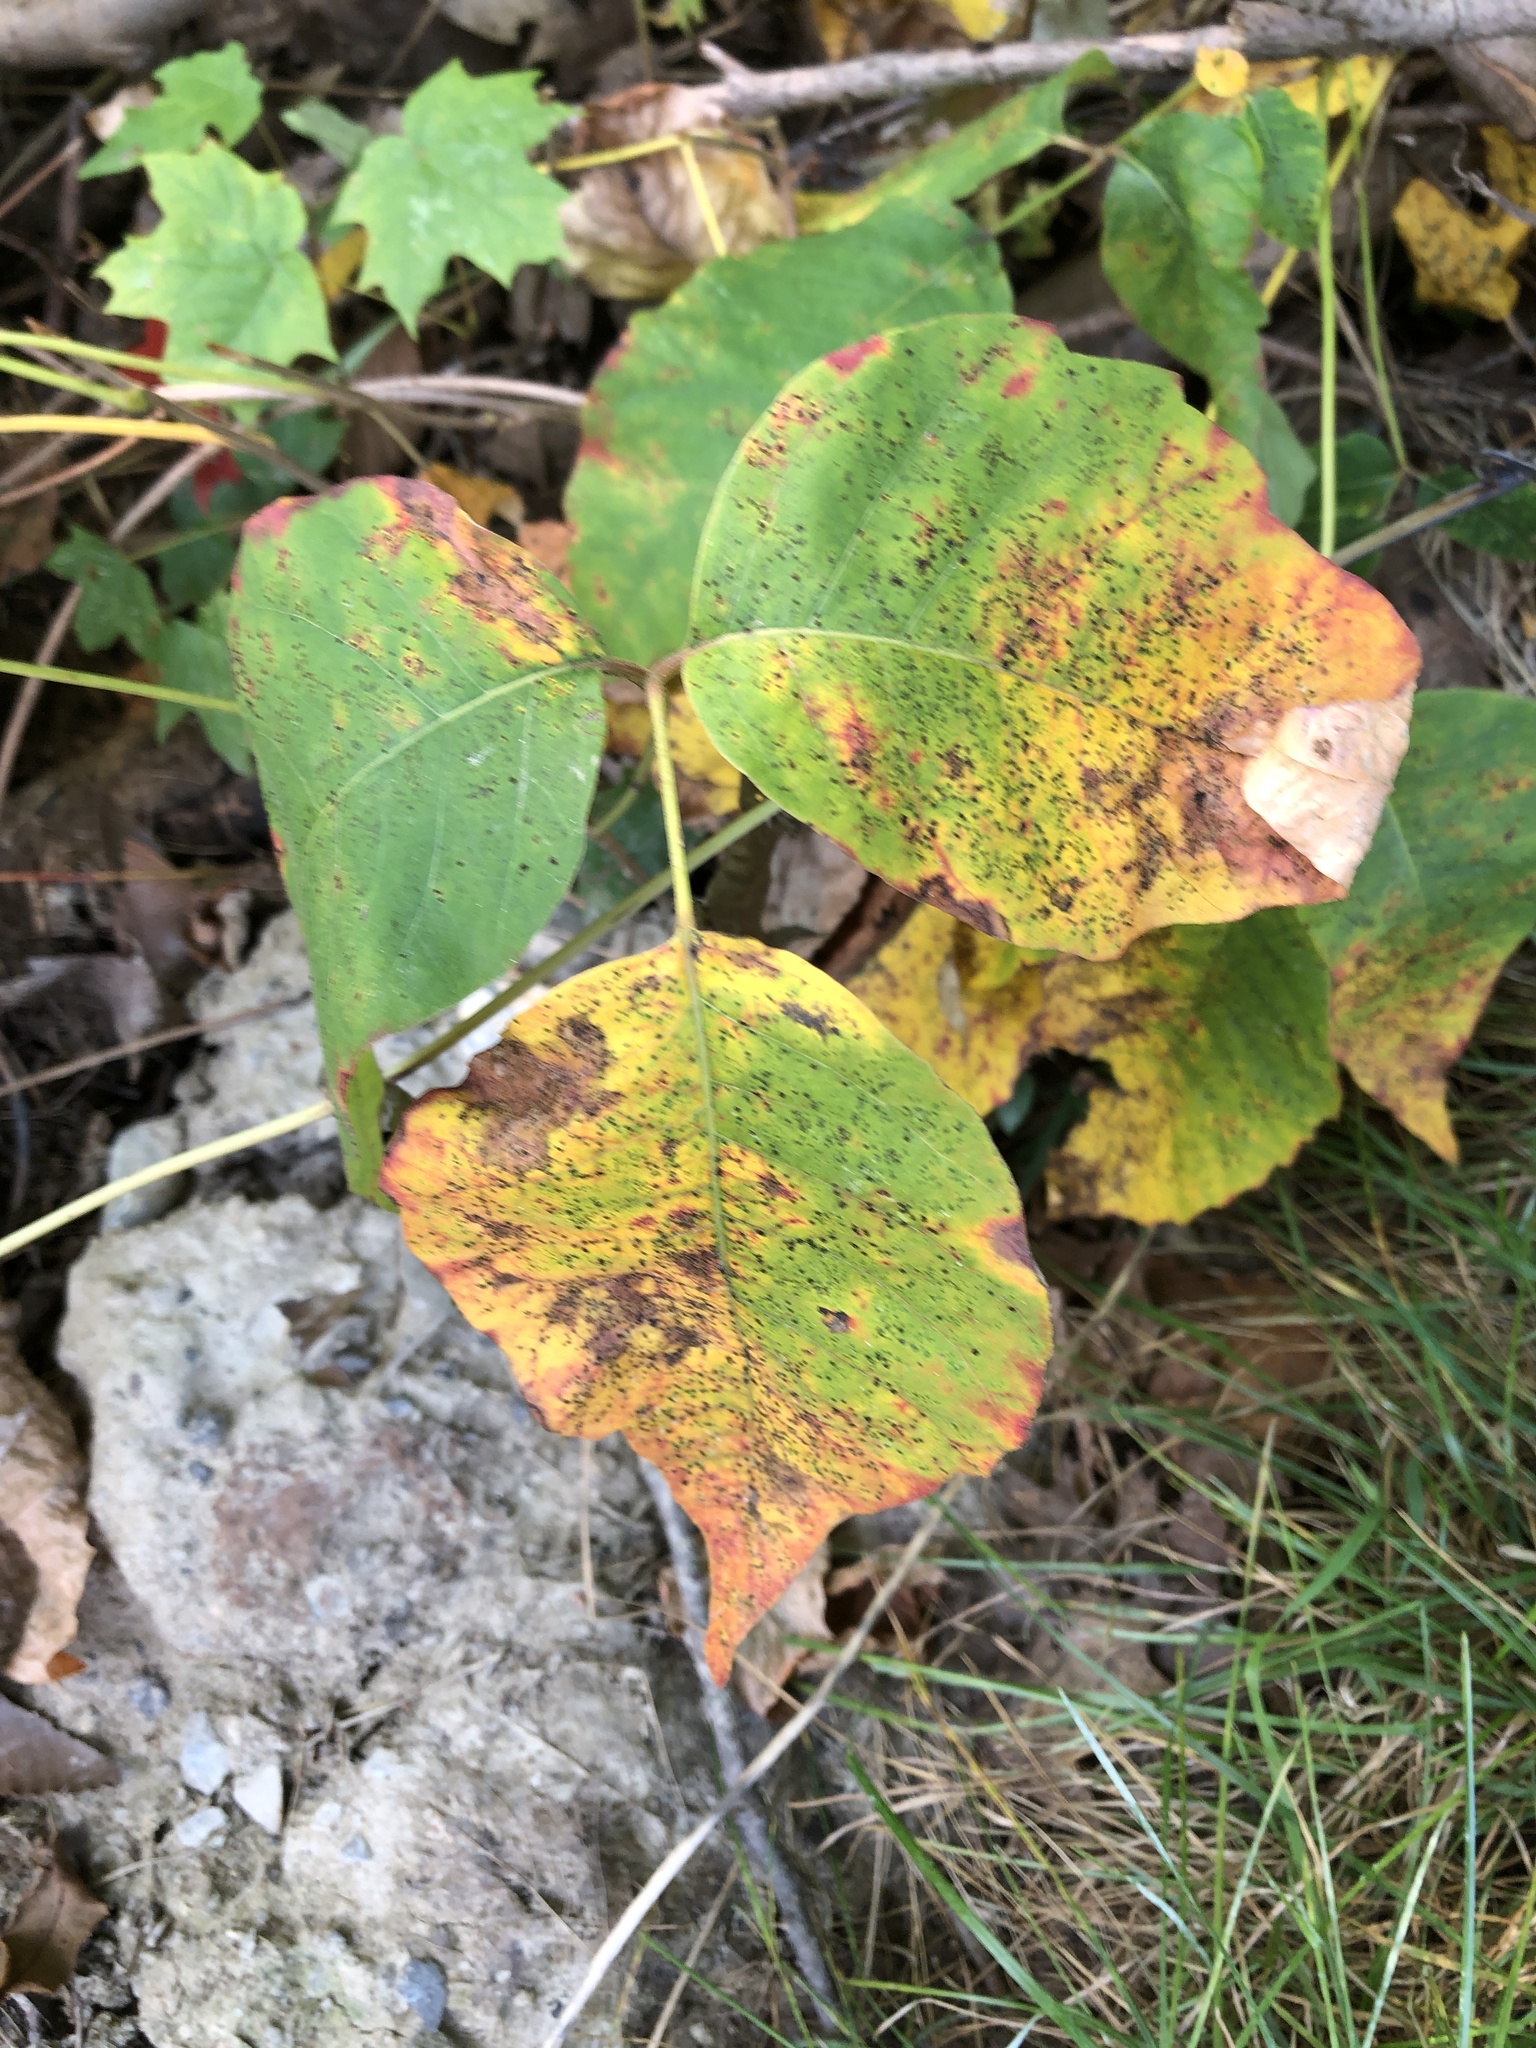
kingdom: Plantae
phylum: Tracheophyta
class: Magnoliopsida
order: Sapindales
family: Anacardiaceae
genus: Toxicodendron
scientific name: Toxicodendron radicans
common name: Poison ivy
